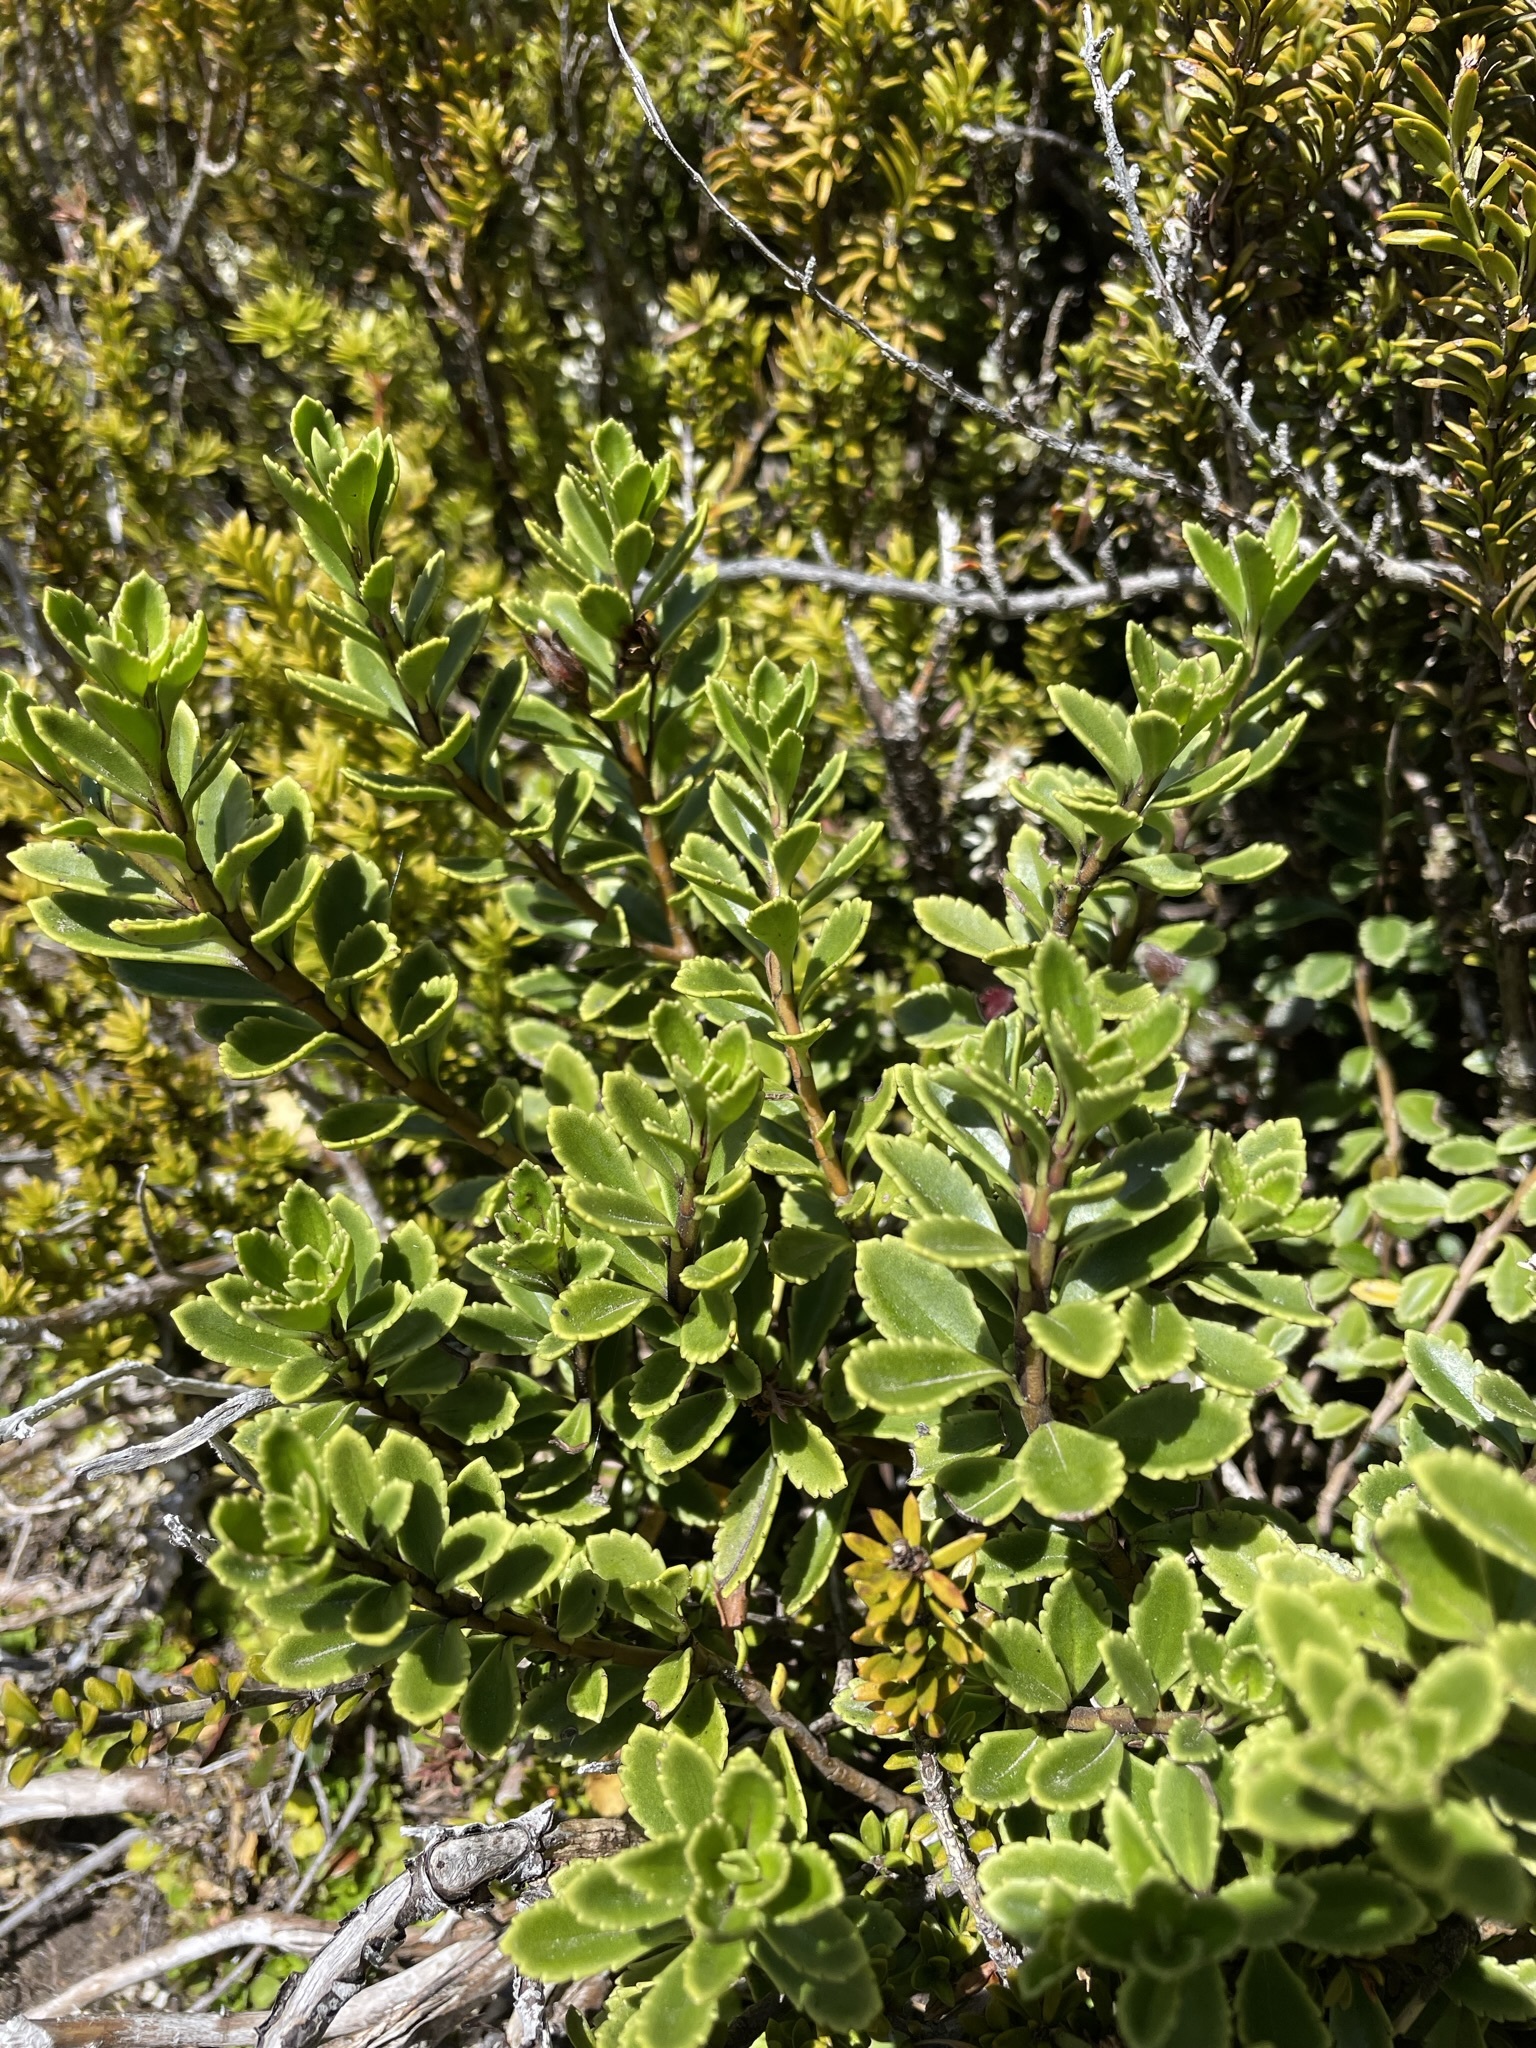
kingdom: Plantae
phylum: Tracheophyta
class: Magnoliopsida
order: Lamiales
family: Plantaginaceae
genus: Veronica
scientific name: Veronica macrantha
